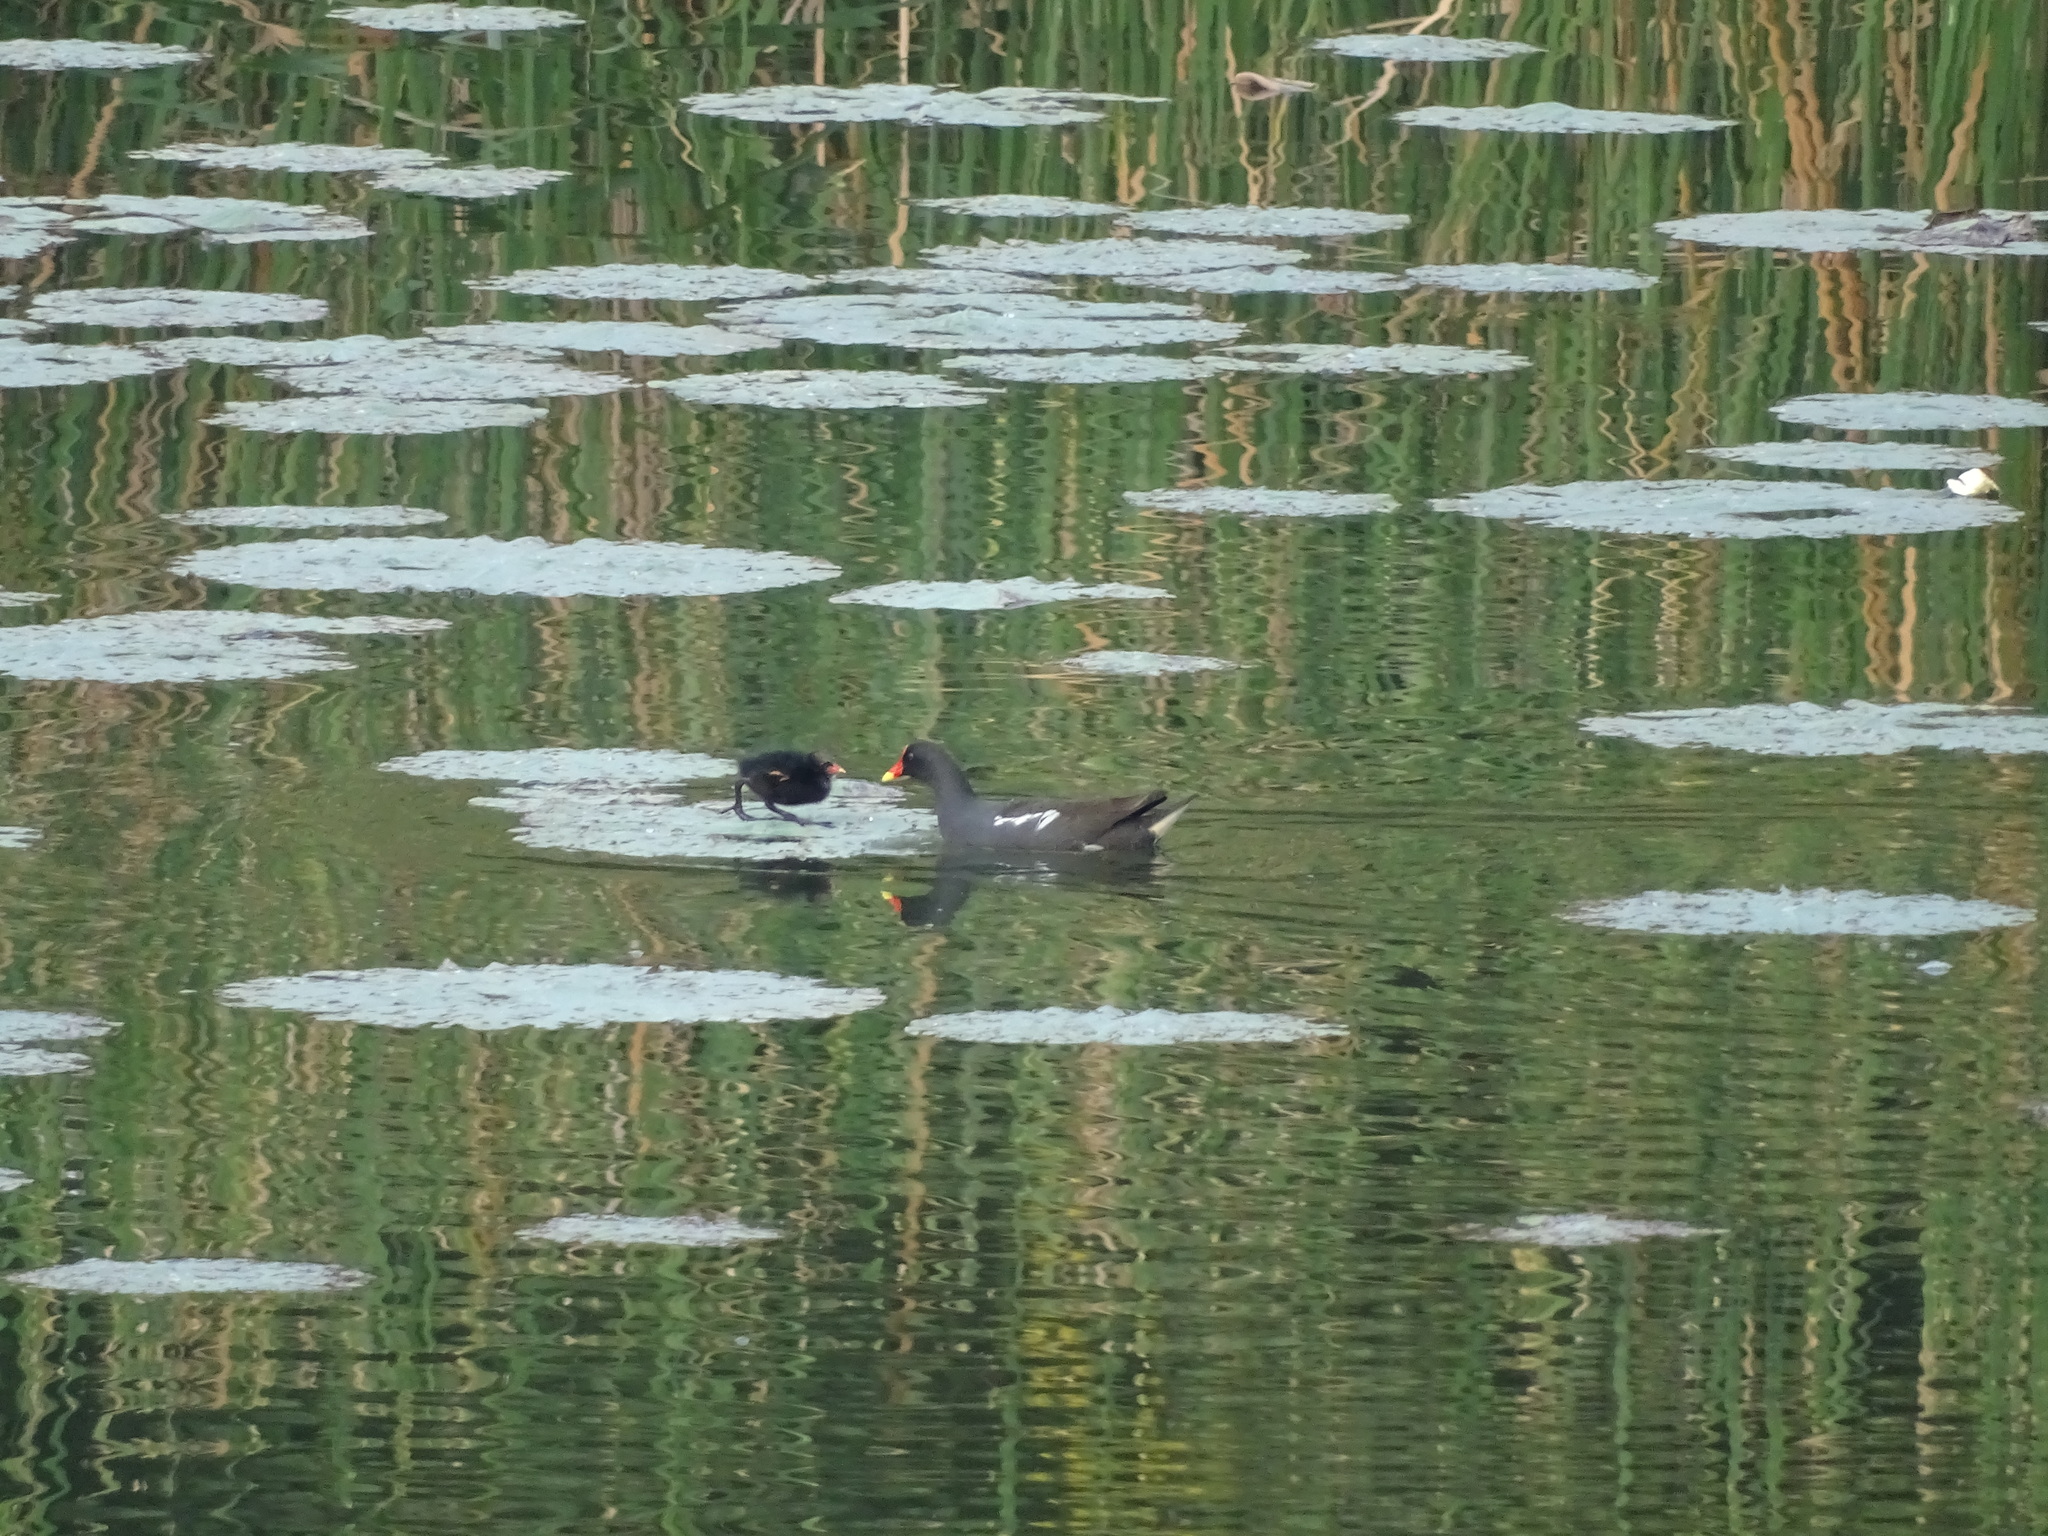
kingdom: Animalia
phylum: Chordata
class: Aves
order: Gruiformes
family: Rallidae
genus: Gallinula
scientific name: Gallinula chloropus
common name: Common moorhen
